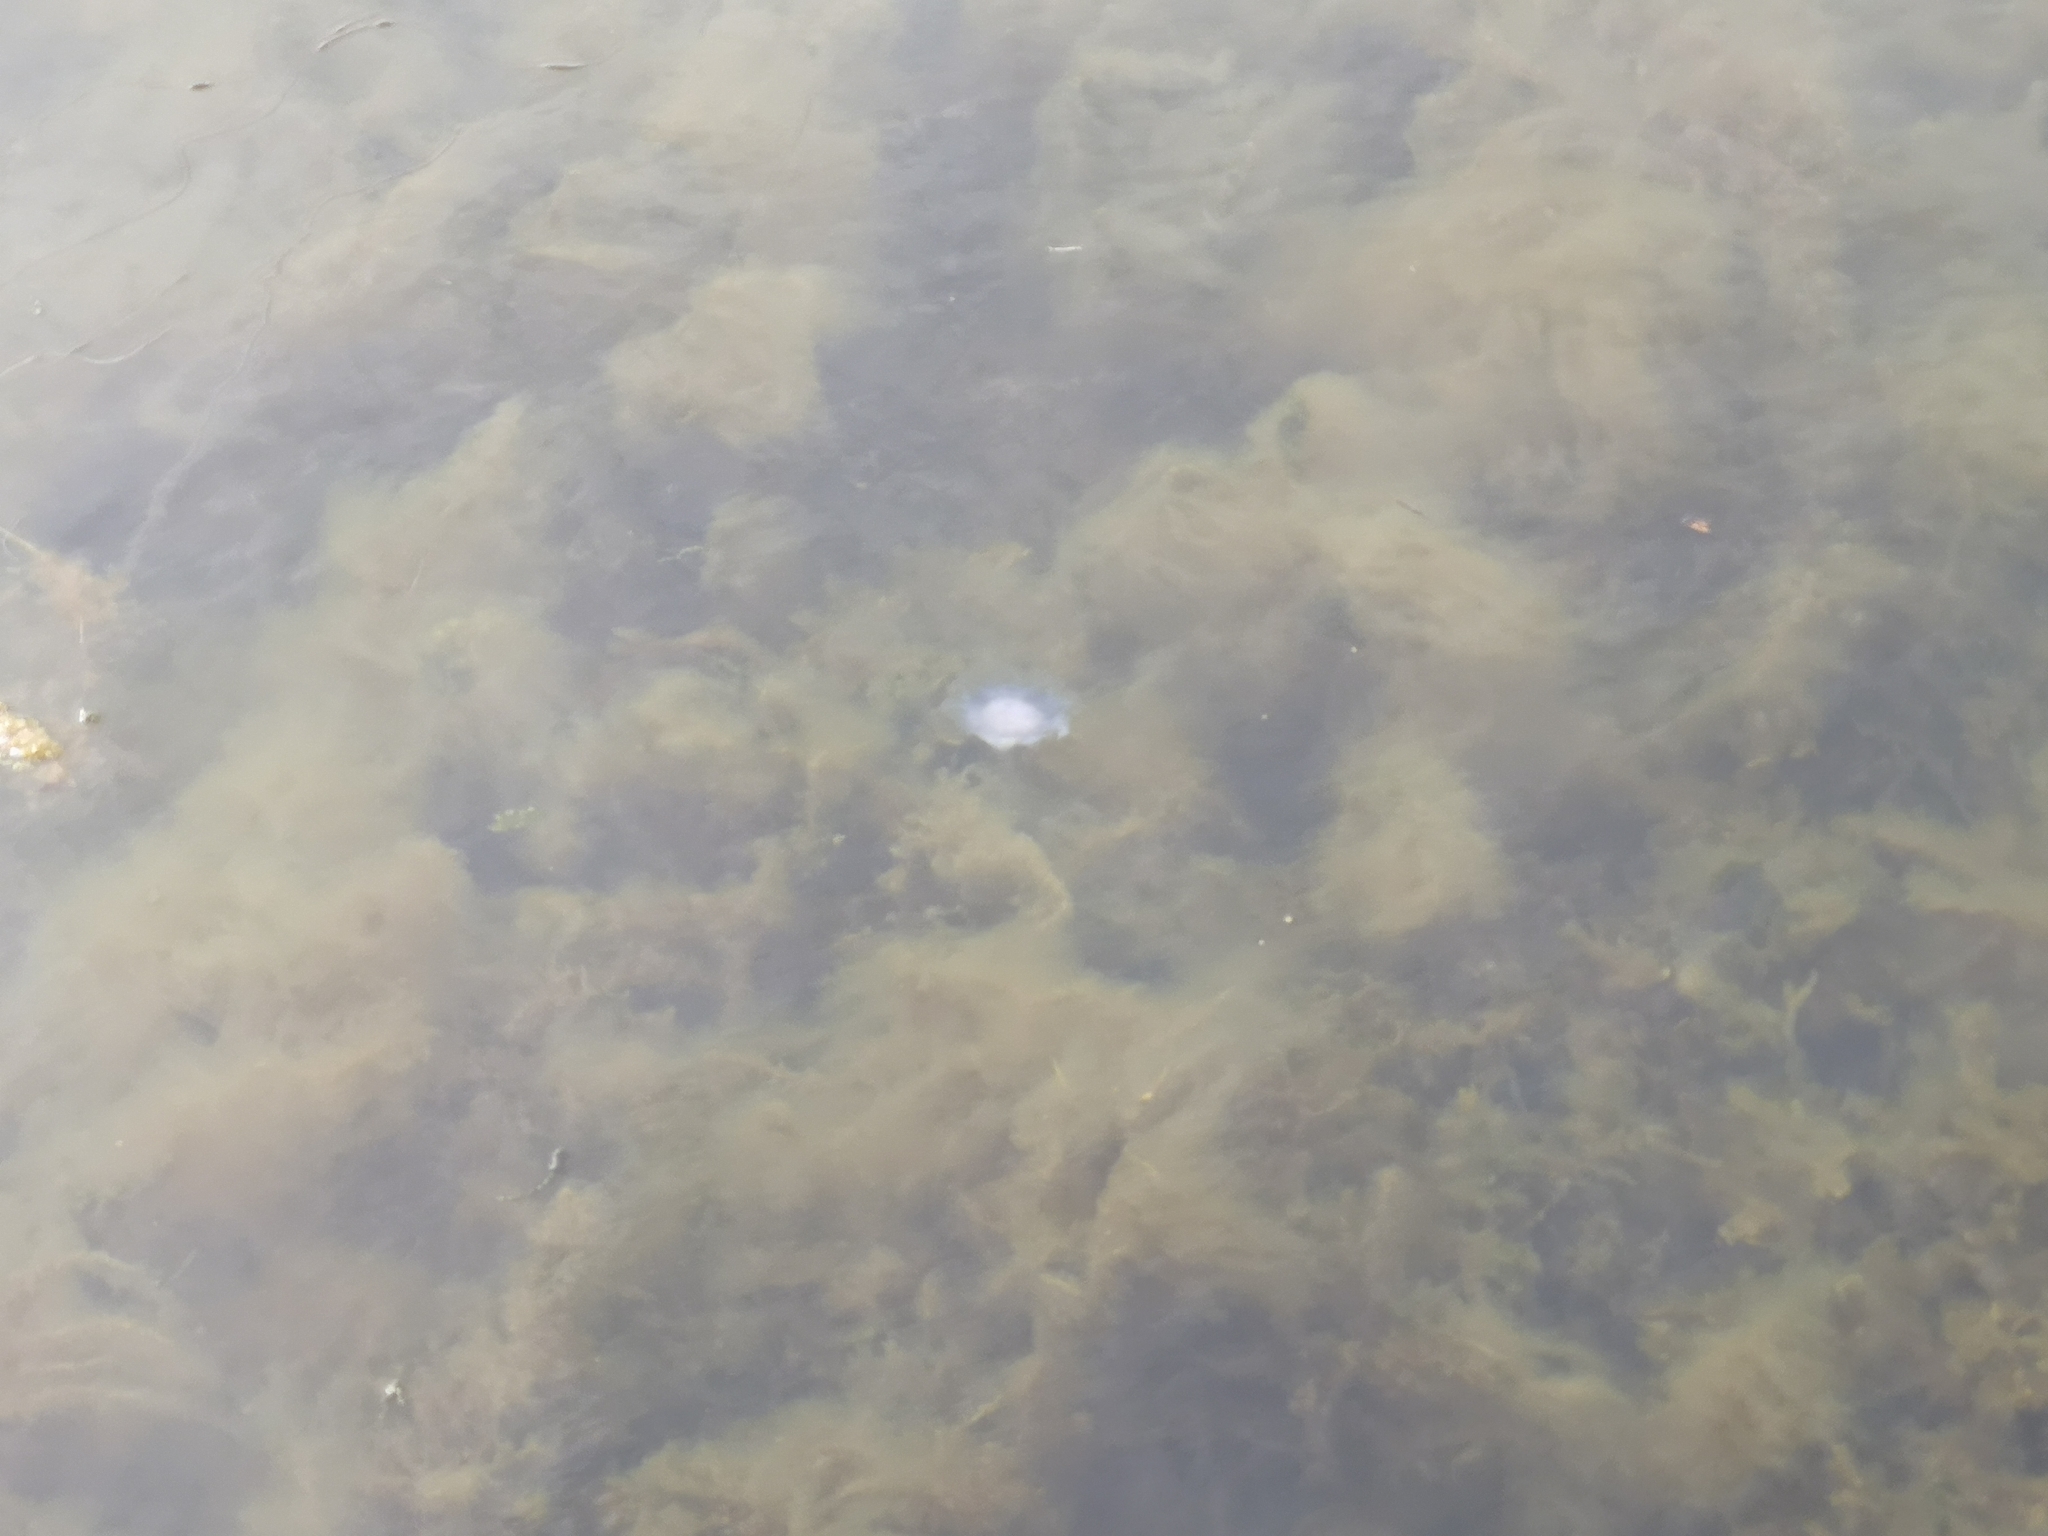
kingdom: Animalia
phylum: Cnidaria
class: Scyphozoa
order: Semaeostomeae
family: Cyaneidae
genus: Cyanea
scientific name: Cyanea lamarckii
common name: Blue jellyfish
